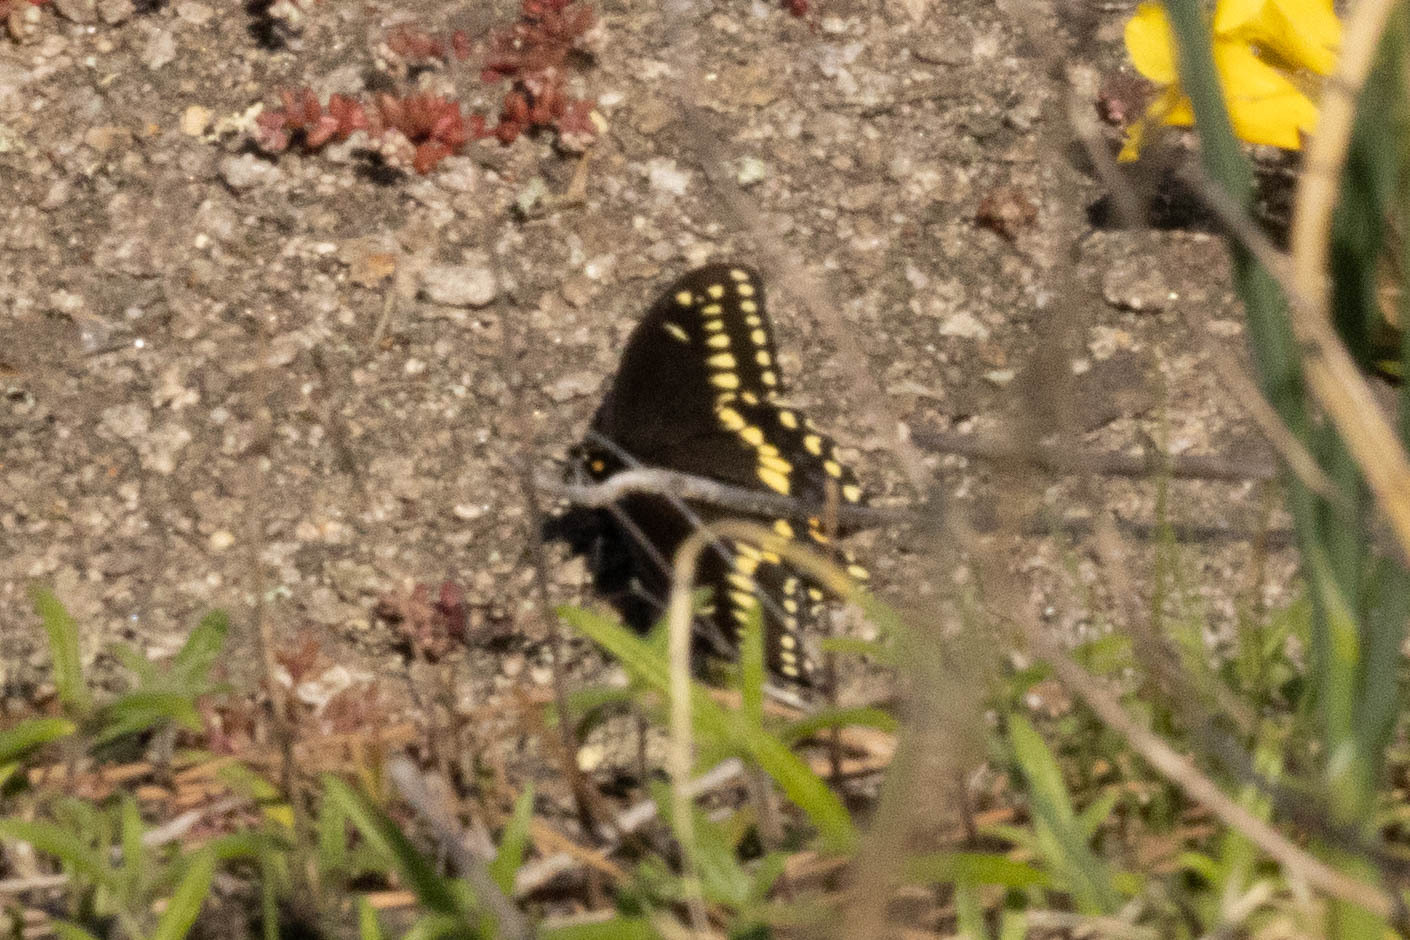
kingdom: Animalia
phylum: Arthropoda
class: Insecta
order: Lepidoptera
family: Papilionidae
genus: Papilio
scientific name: Papilio polyxenes
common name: Black swallowtail
